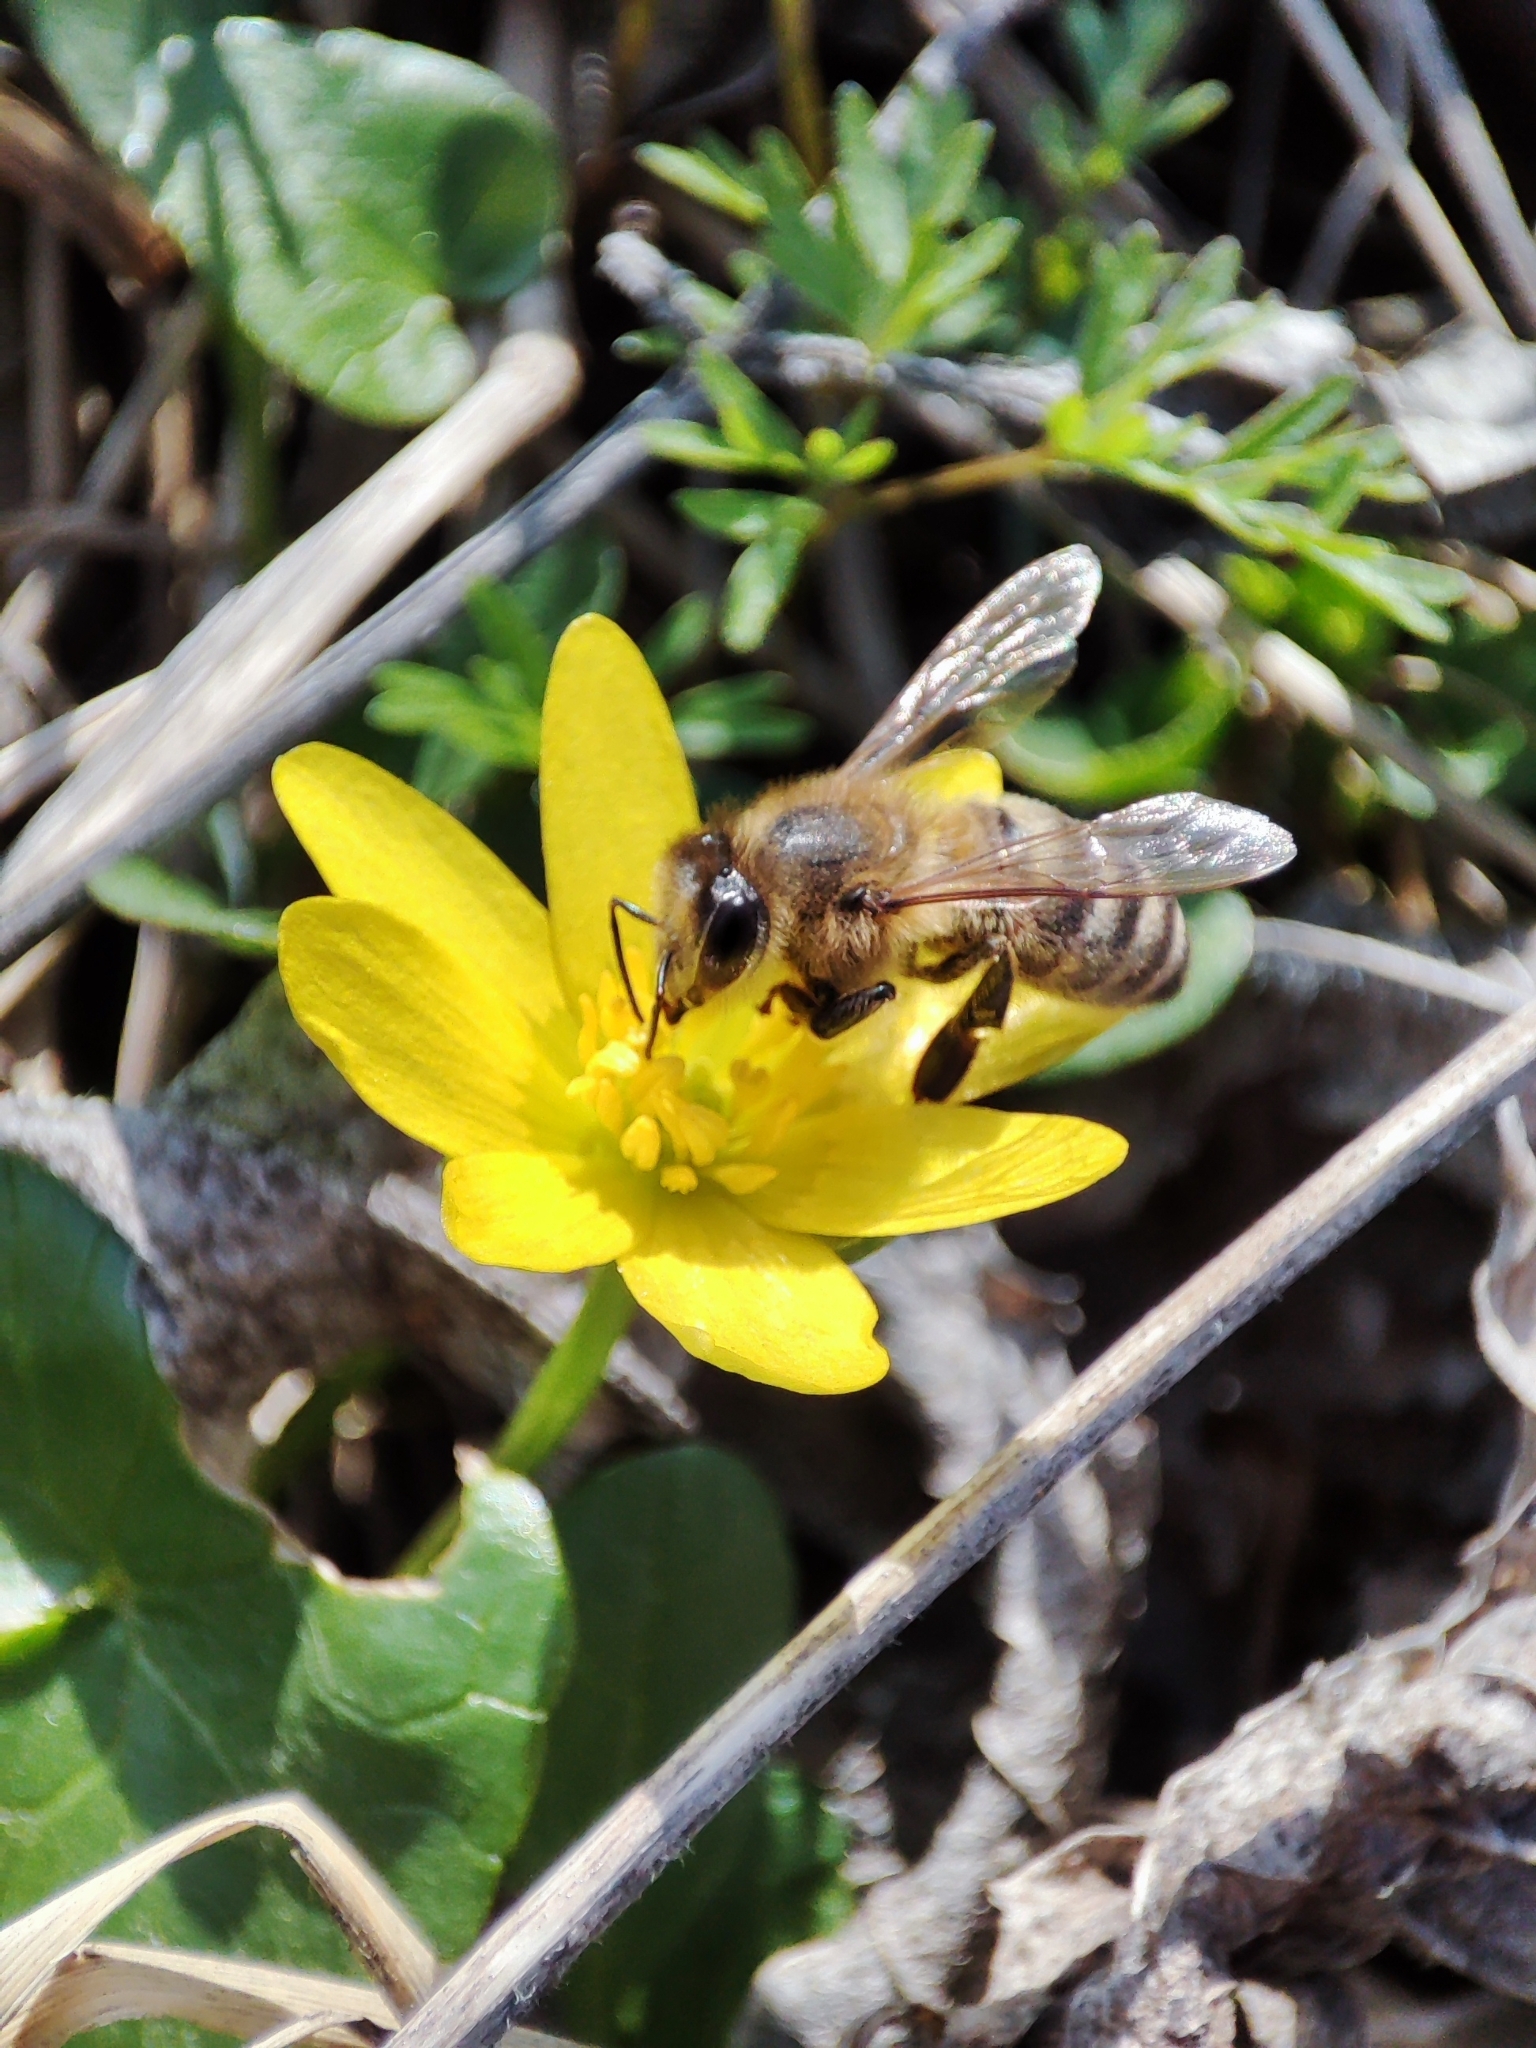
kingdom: Animalia
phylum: Arthropoda
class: Insecta
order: Hymenoptera
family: Apidae
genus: Apis
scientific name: Apis mellifera
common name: Honey bee
